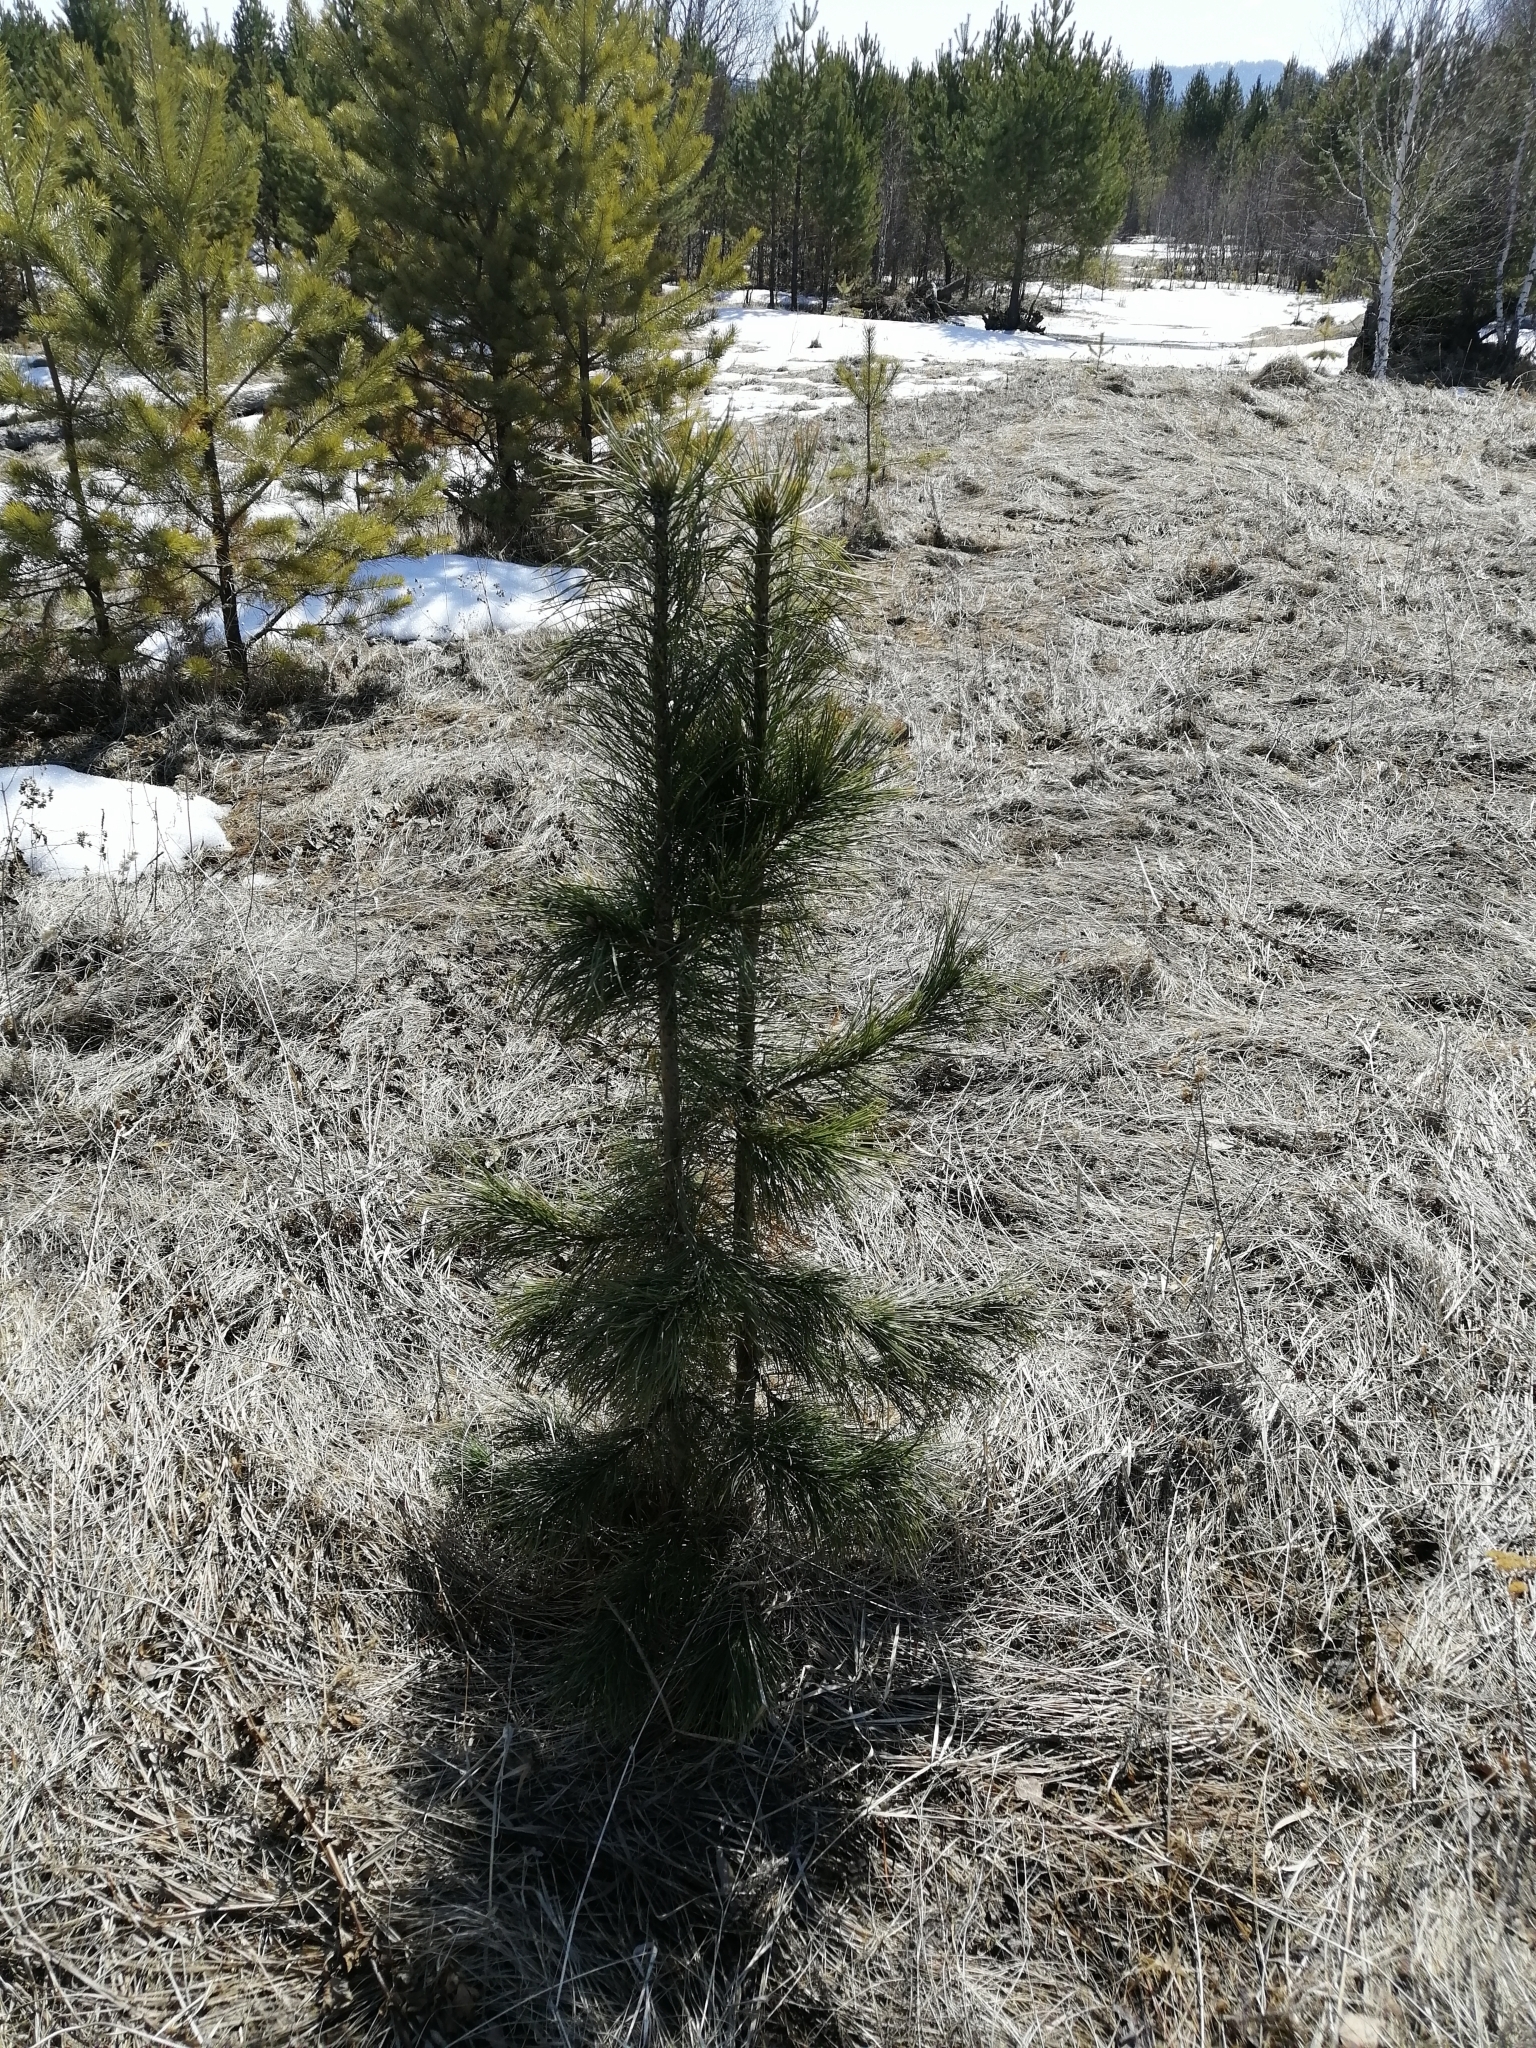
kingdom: Plantae
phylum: Tracheophyta
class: Pinopsida
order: Pinales
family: Pinaceae
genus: Pinus
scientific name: Pinus sibirica
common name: Siberian pine
